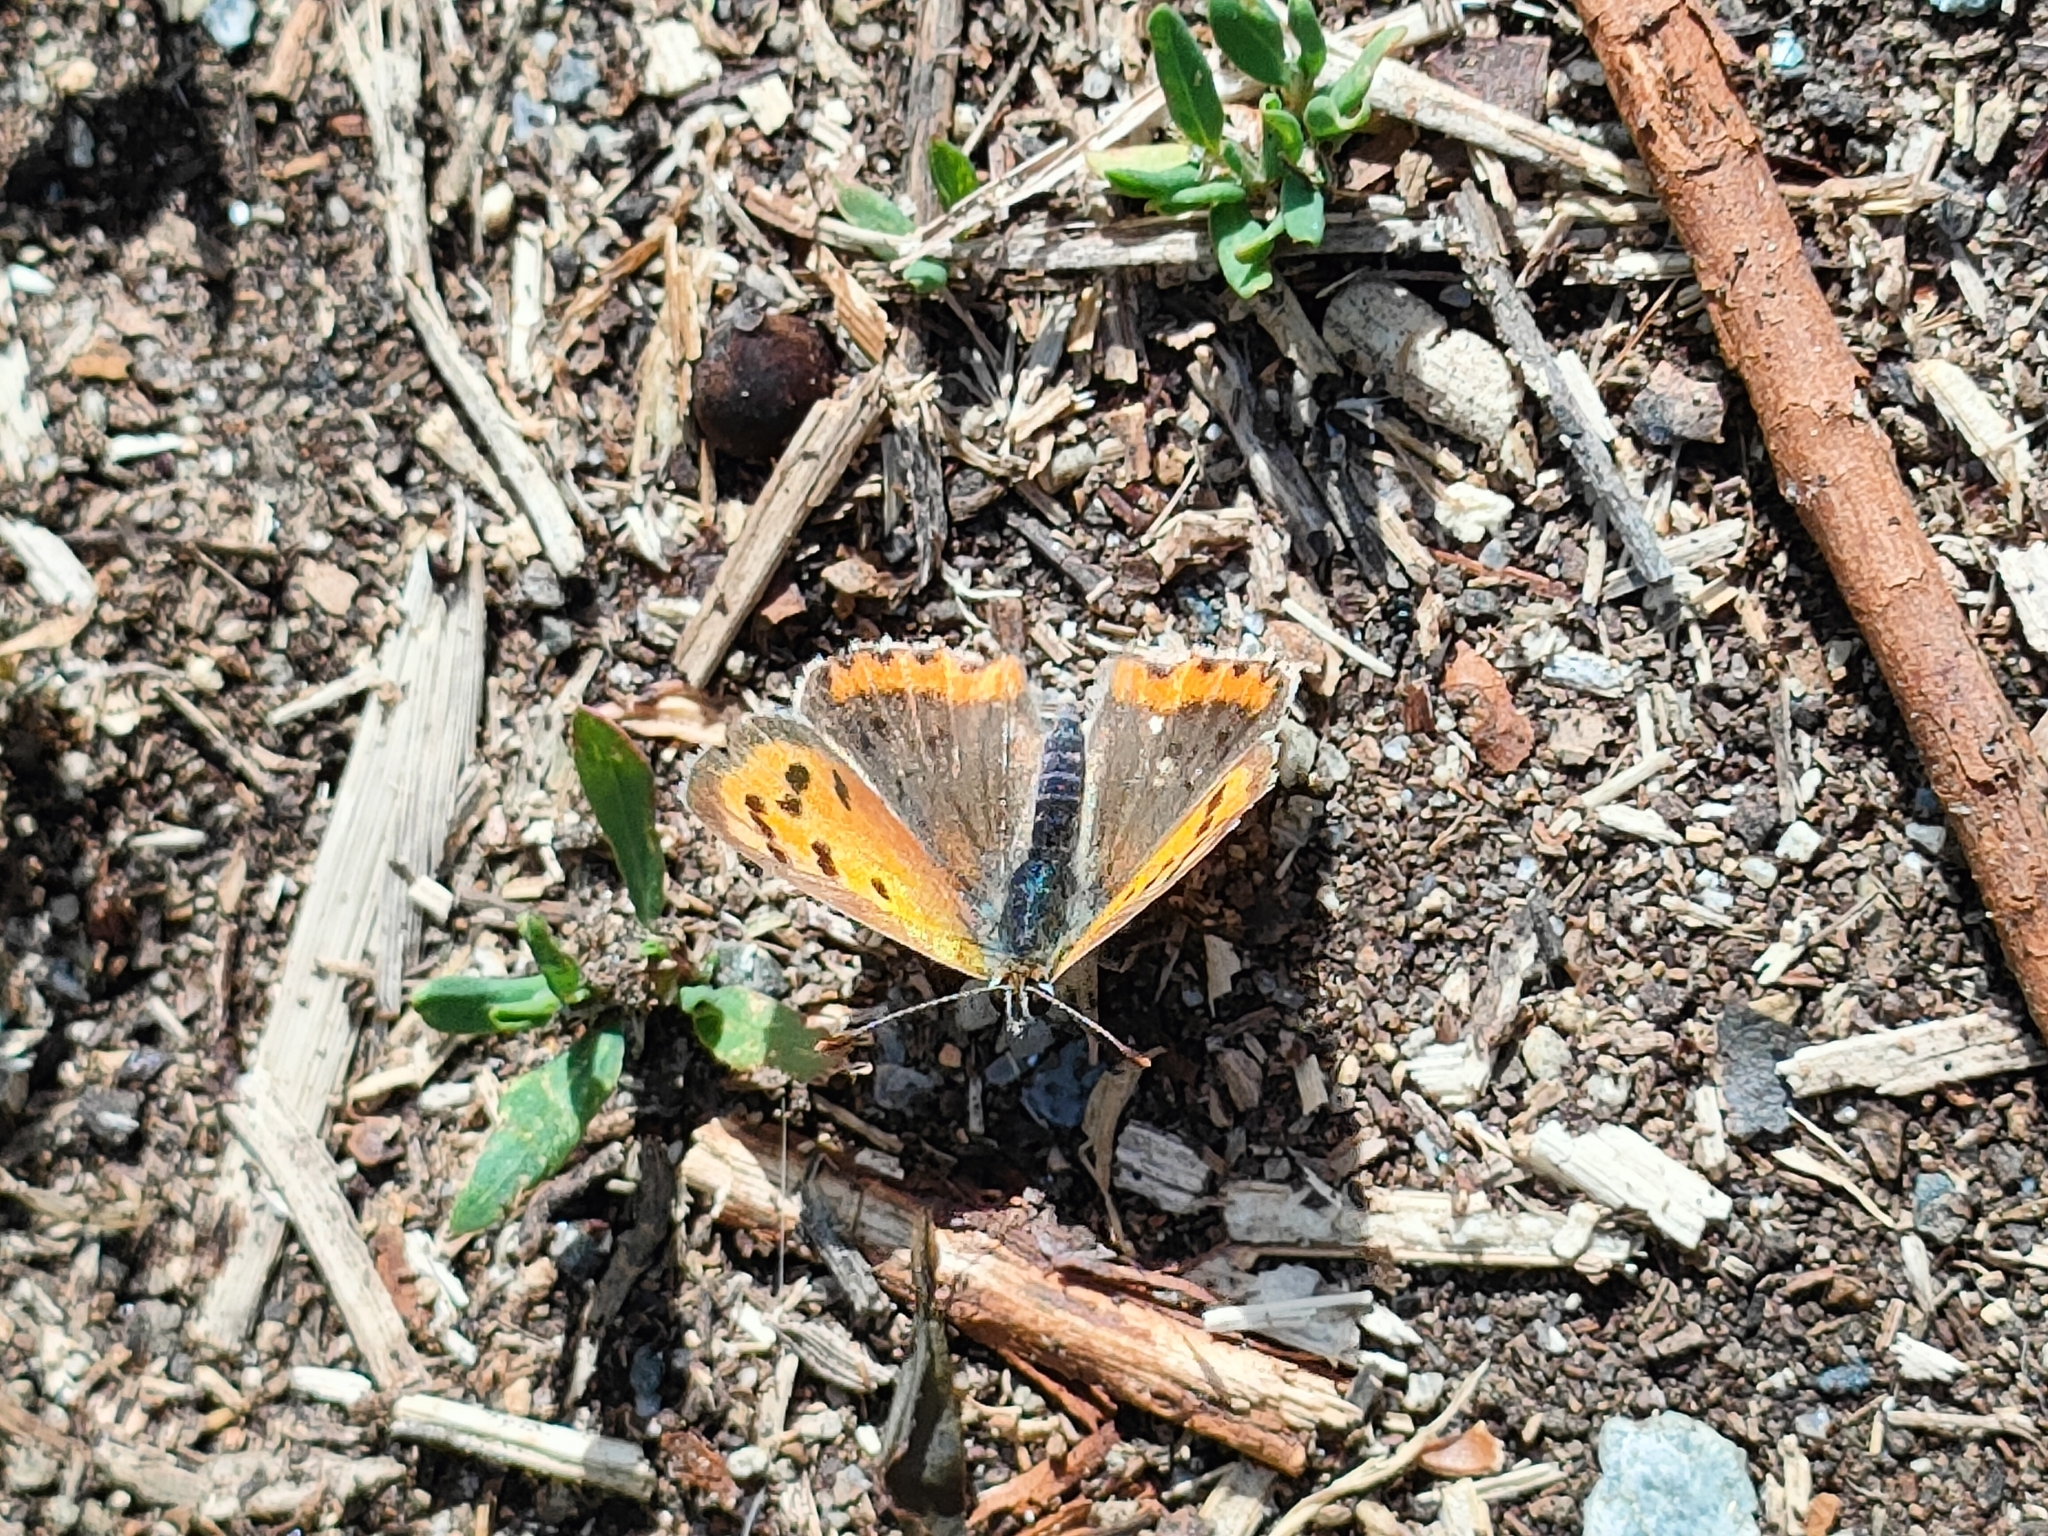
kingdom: Animalia
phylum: Arthropoda
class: Insecta
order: Lepidoptera
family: Lycaenidae
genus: Lycaena
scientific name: Lycaena phlaeas
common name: Small copper
